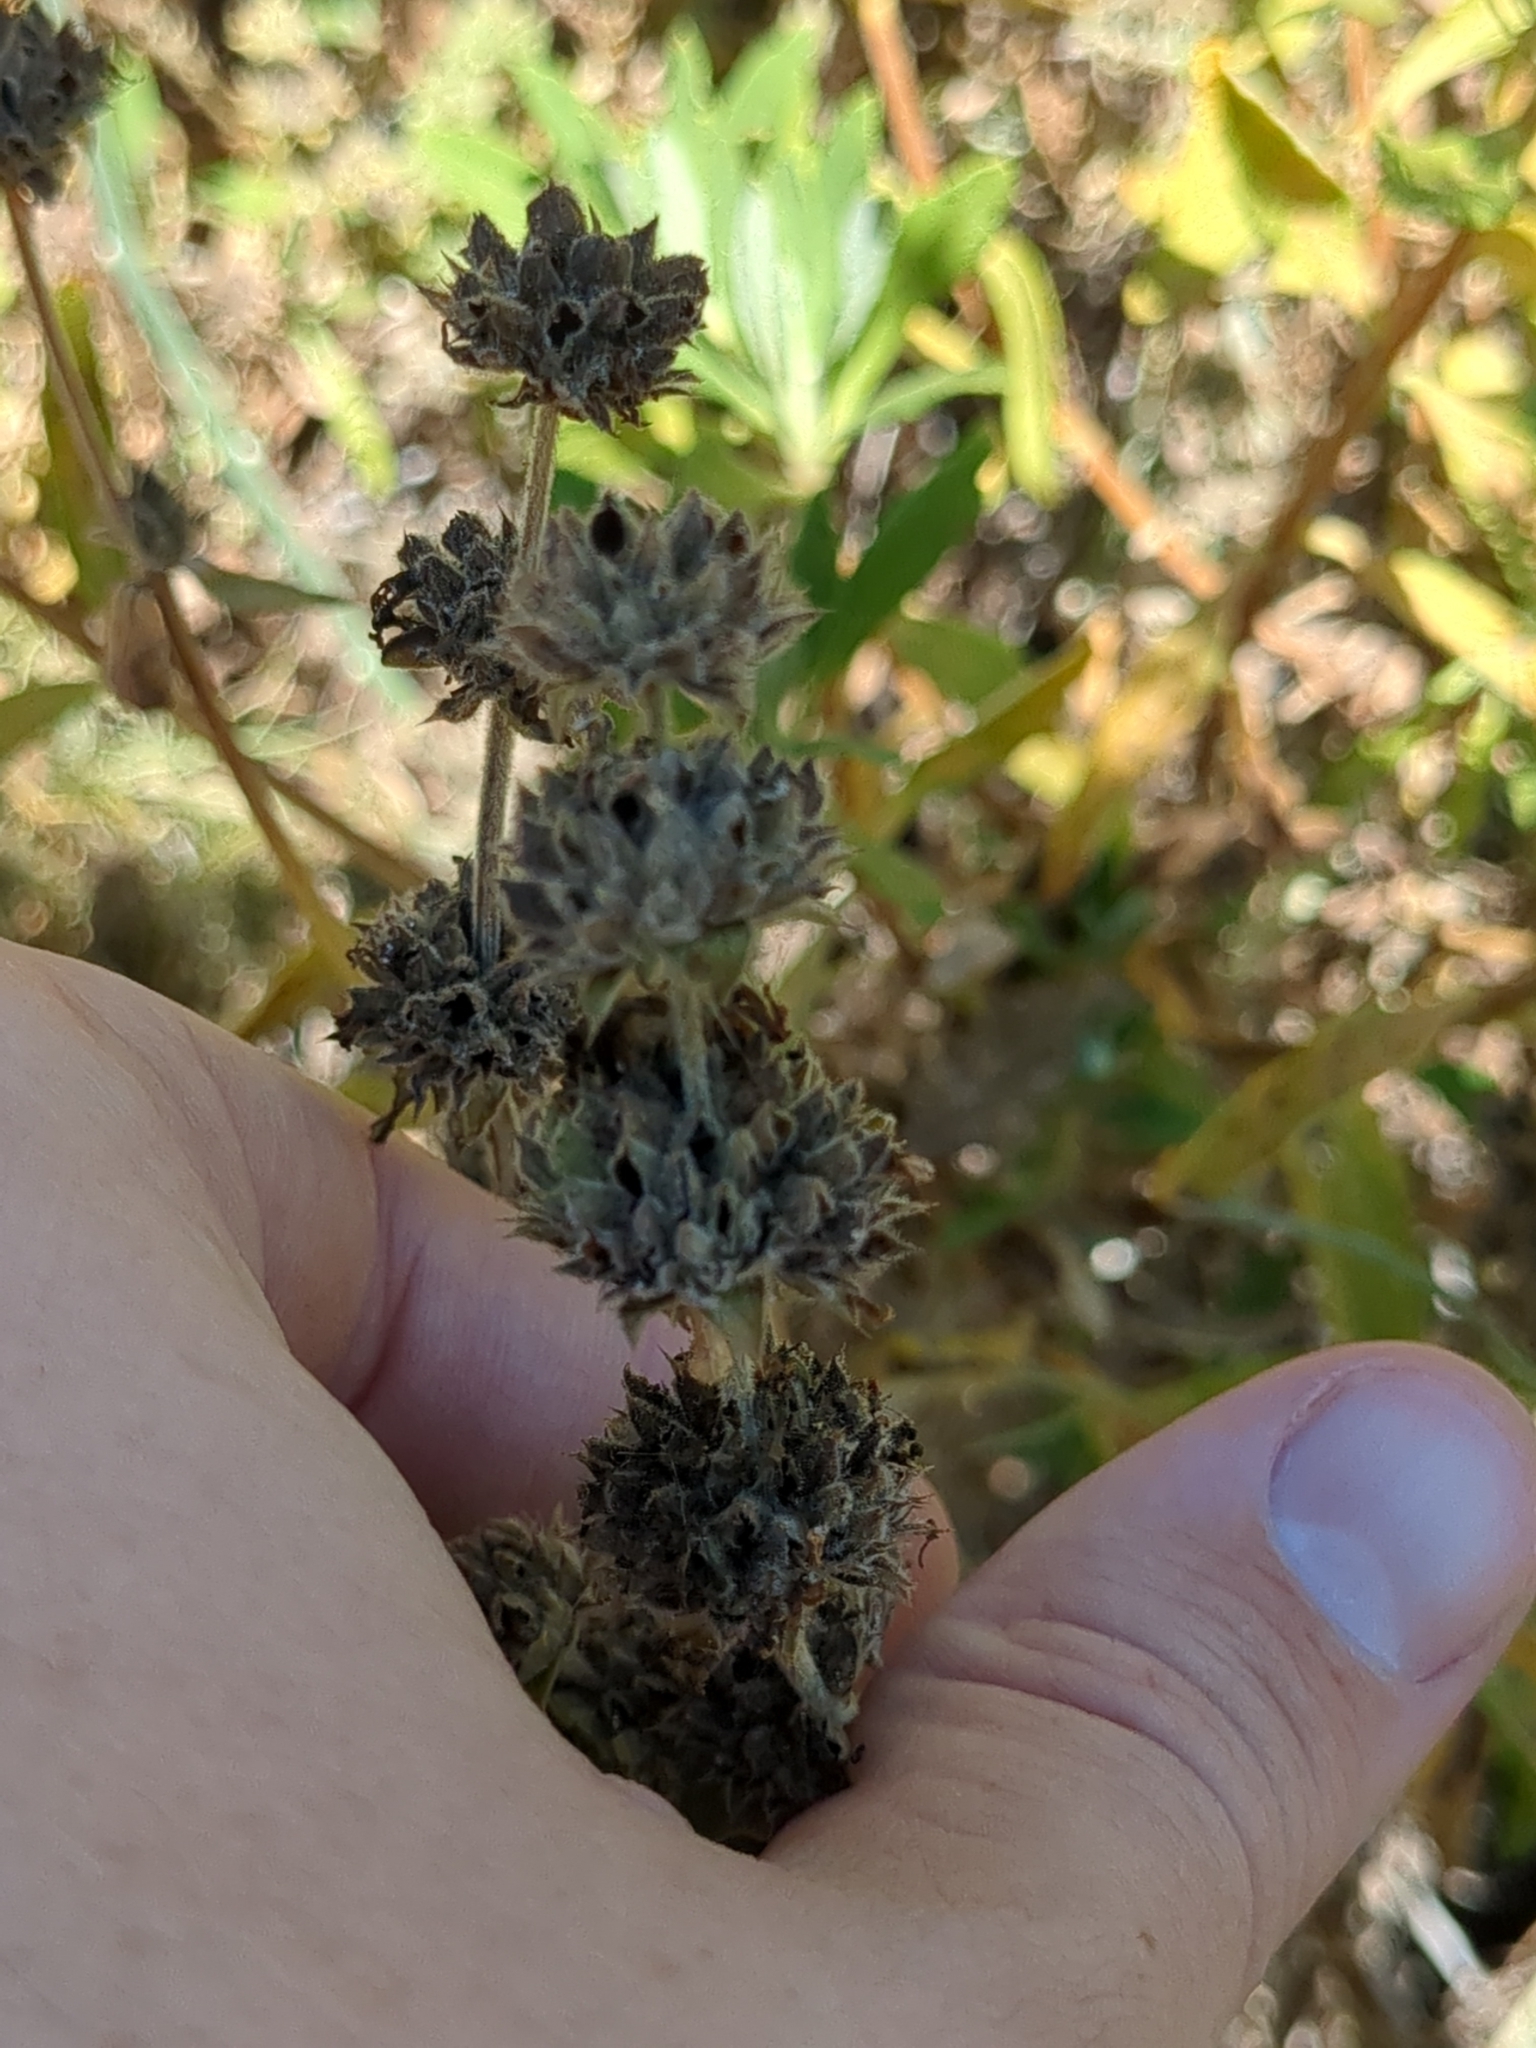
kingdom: Plantae
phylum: Tracheophyta
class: Magnoliopsida
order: Lamiales
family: Lamiaceae
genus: Salvia
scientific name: Salvia mellifera
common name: Black sage
